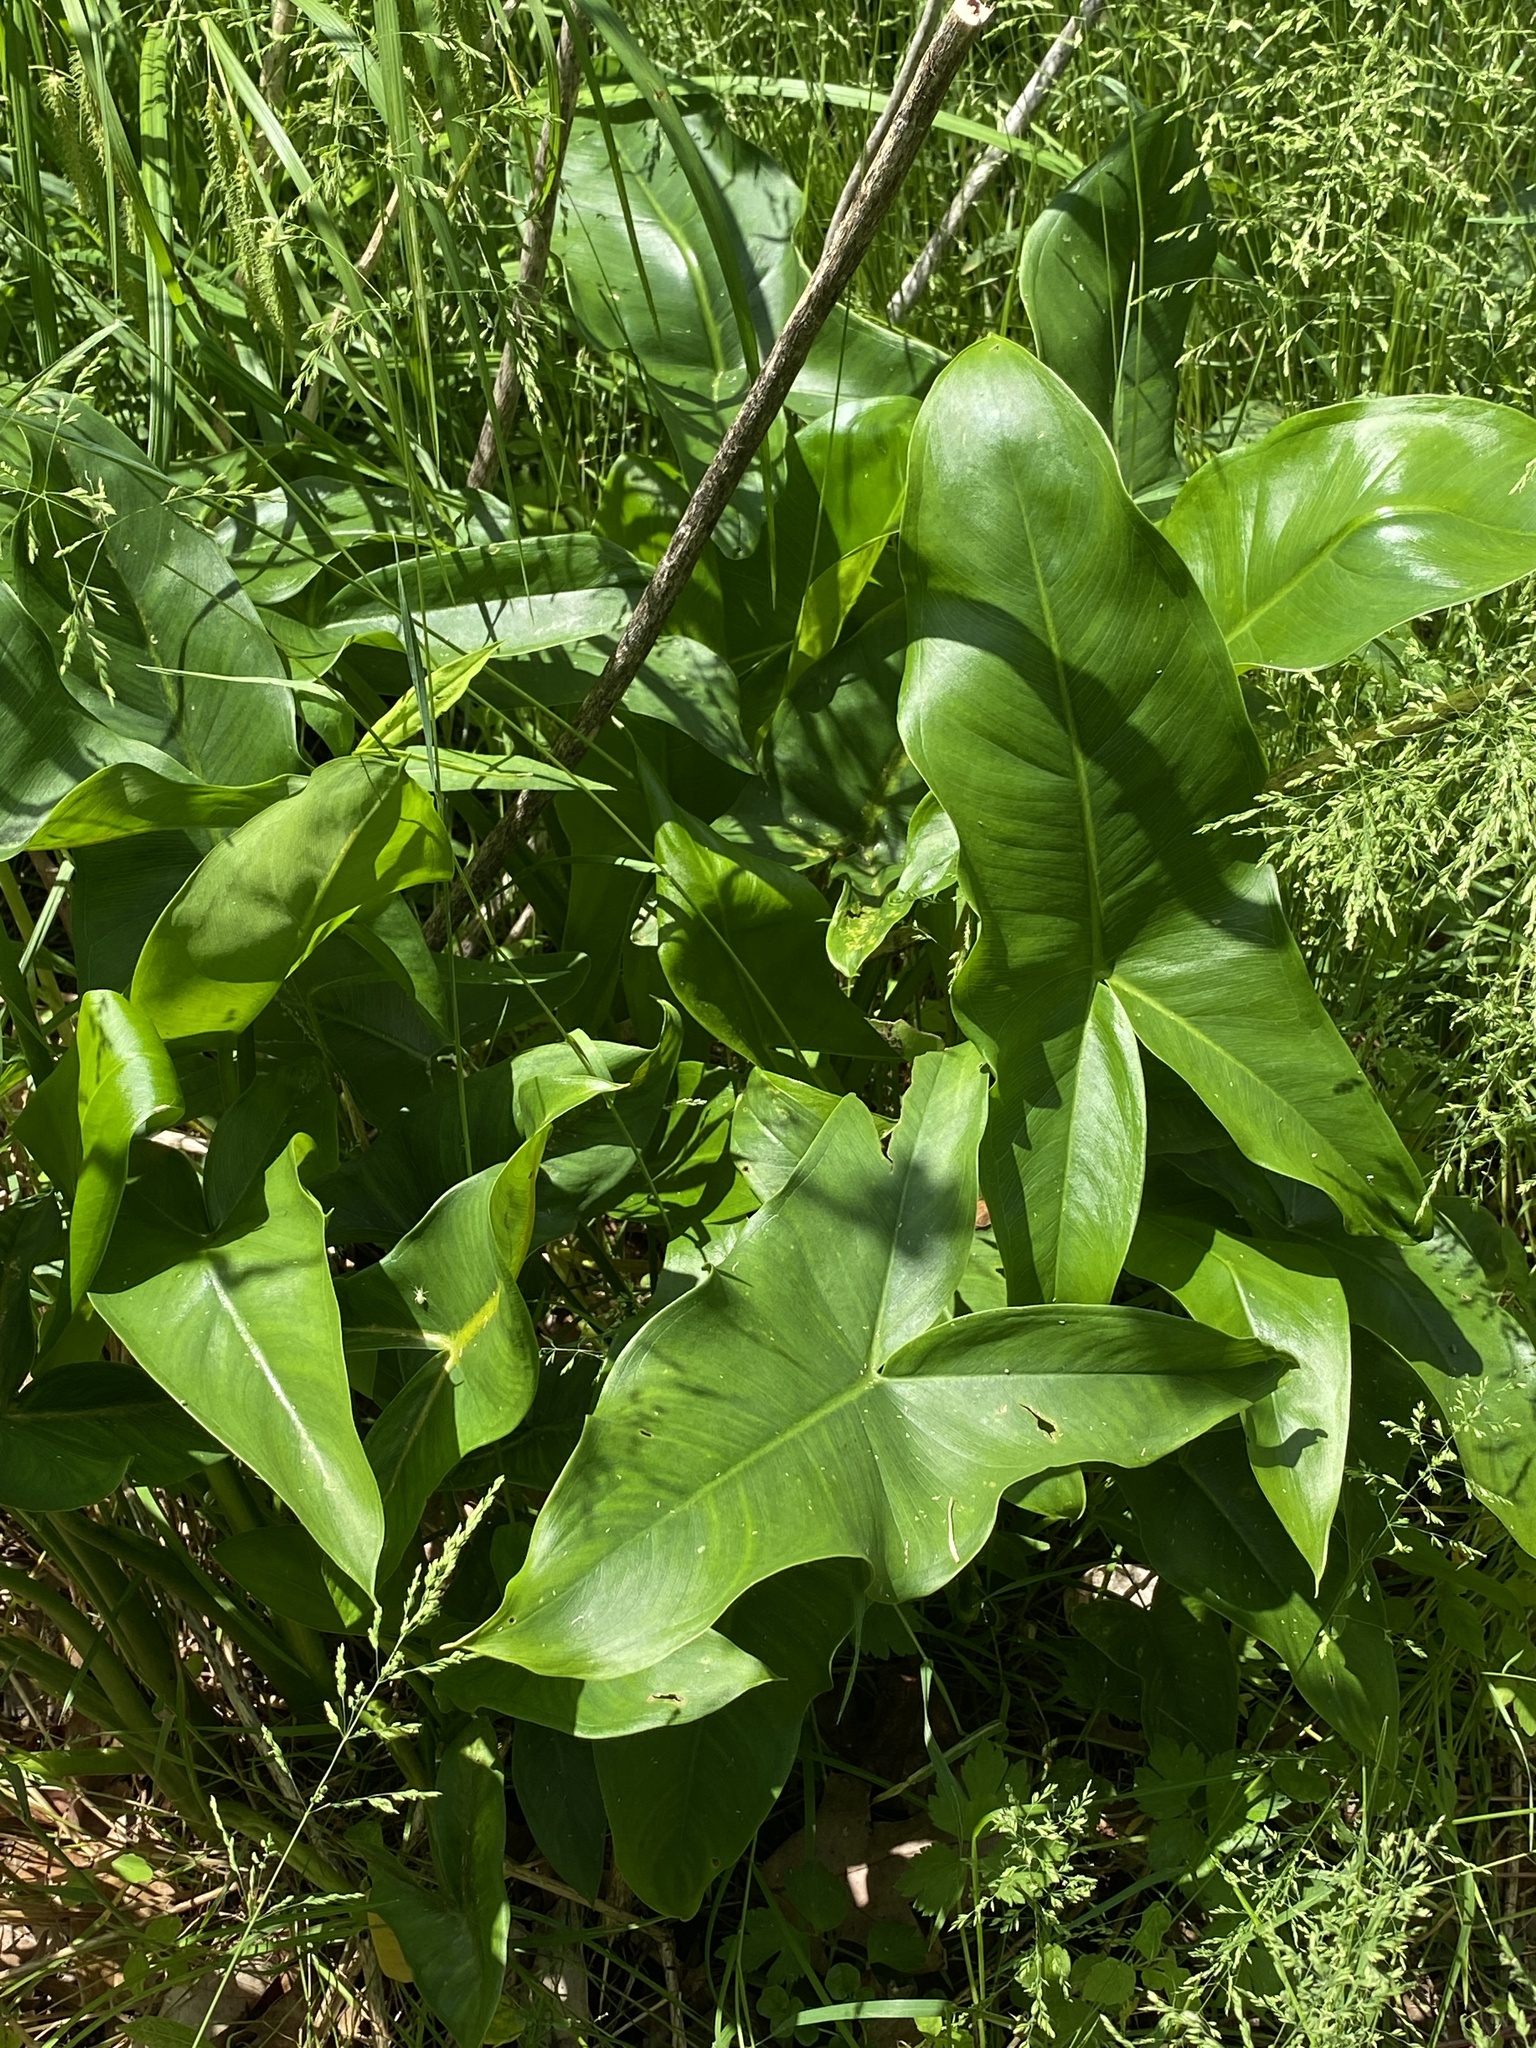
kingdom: Plantae
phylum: Tracheophyta
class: Liliopsida
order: Alismatales
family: Araceae
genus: Peltandra
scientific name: Peltandra virginica
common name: Arrow arum
